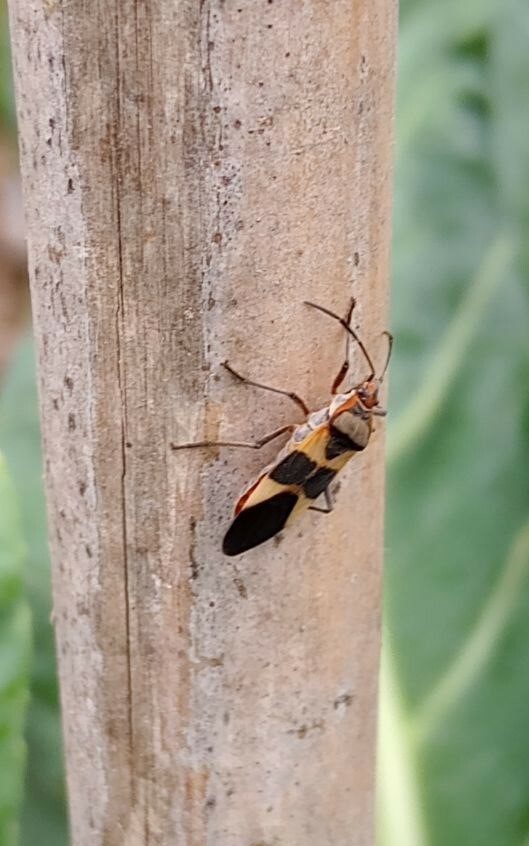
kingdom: Animalia
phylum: Arthropoda
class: Insecta
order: Hemiptera
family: Lygaeidae
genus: Oncopeltus
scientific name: Oncopeltus unifasciatellus
